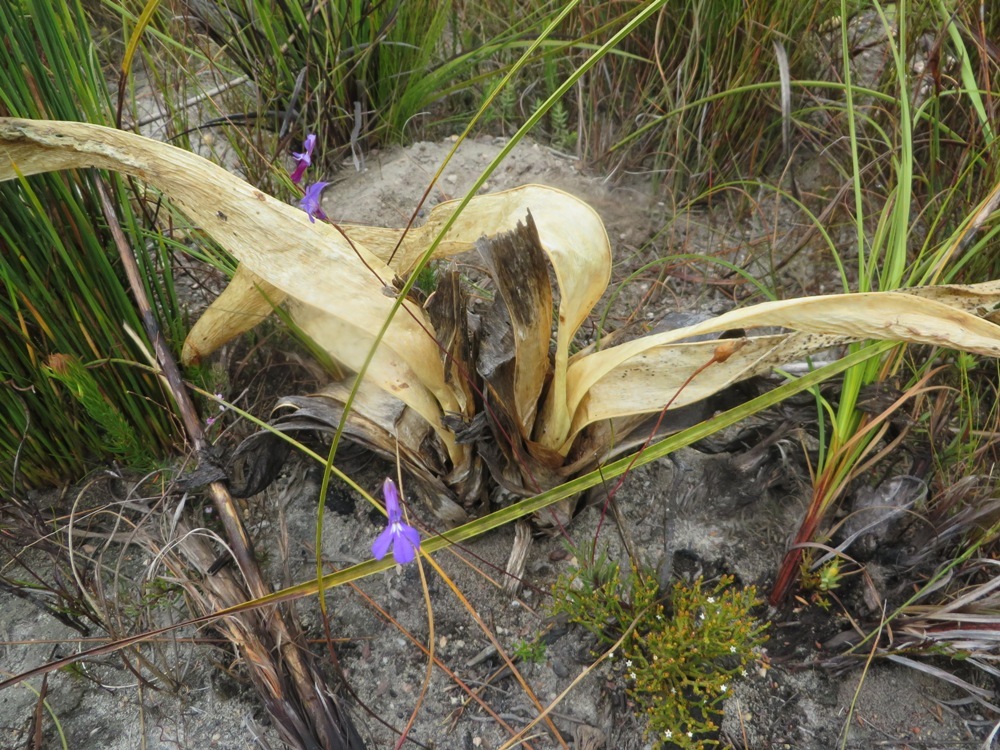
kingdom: Plantae
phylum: Tracheophyta
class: Liliopsida
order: Asparagales
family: Amaryllidaceae
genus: Cyrtanthus
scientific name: Cyrtanthus carneus
